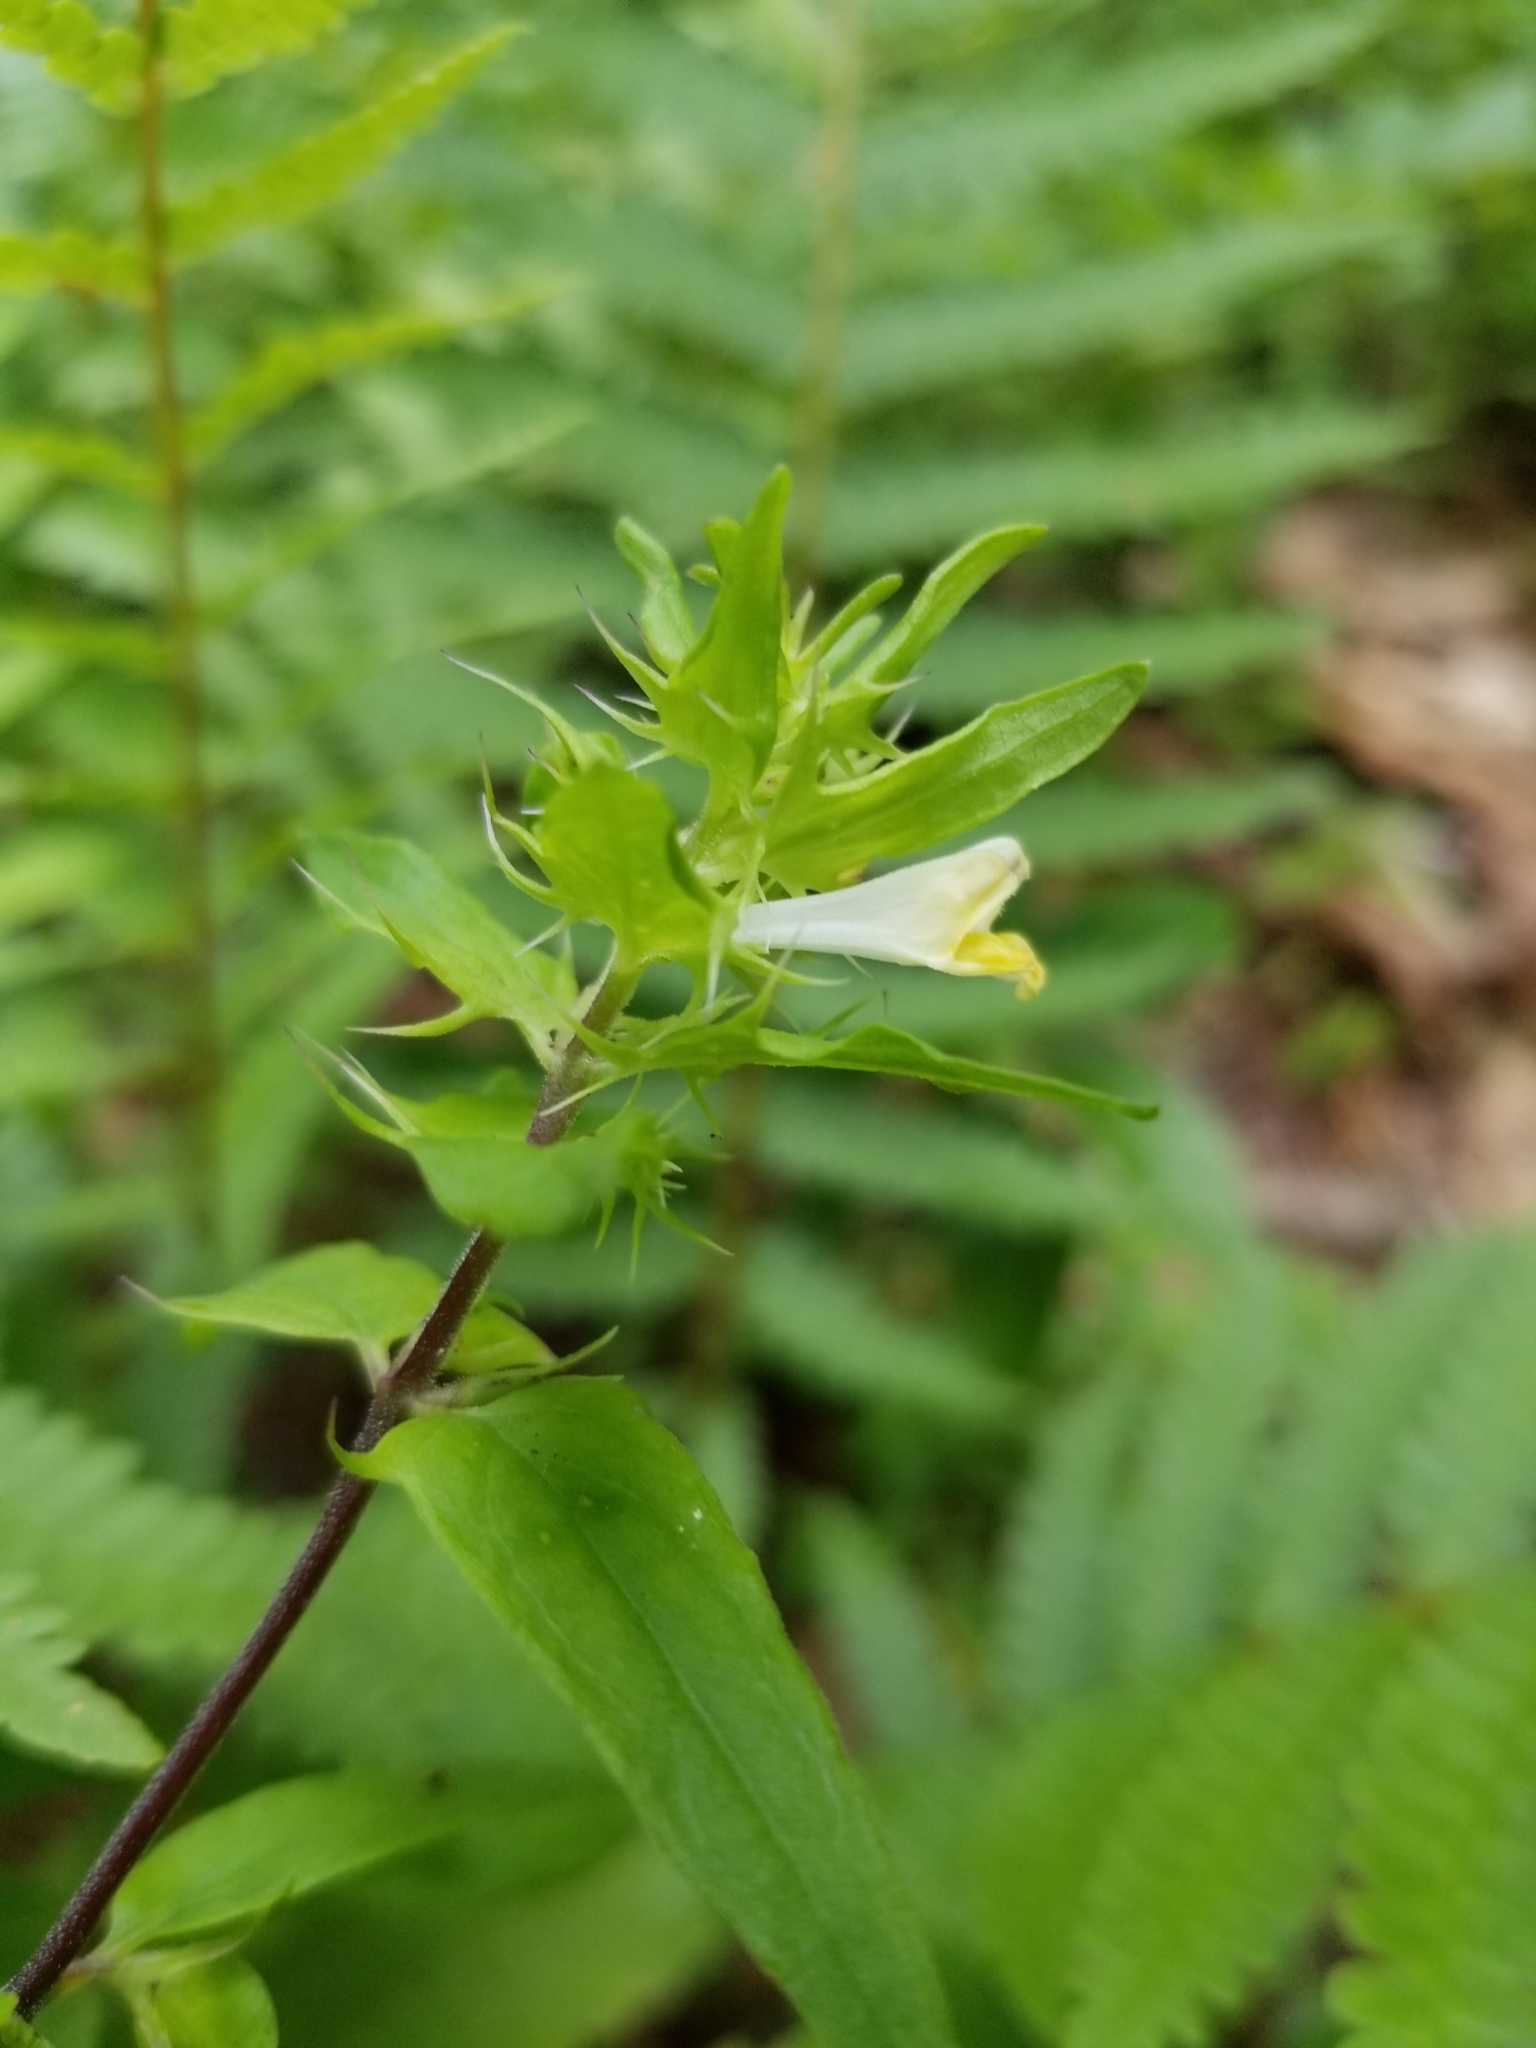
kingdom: Plantae
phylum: Tracheophyta
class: Magnoliopsida
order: Lamiales
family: Orobanchaceae
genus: Melampyrum
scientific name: Melampyrum lineare
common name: American cow-wheat
